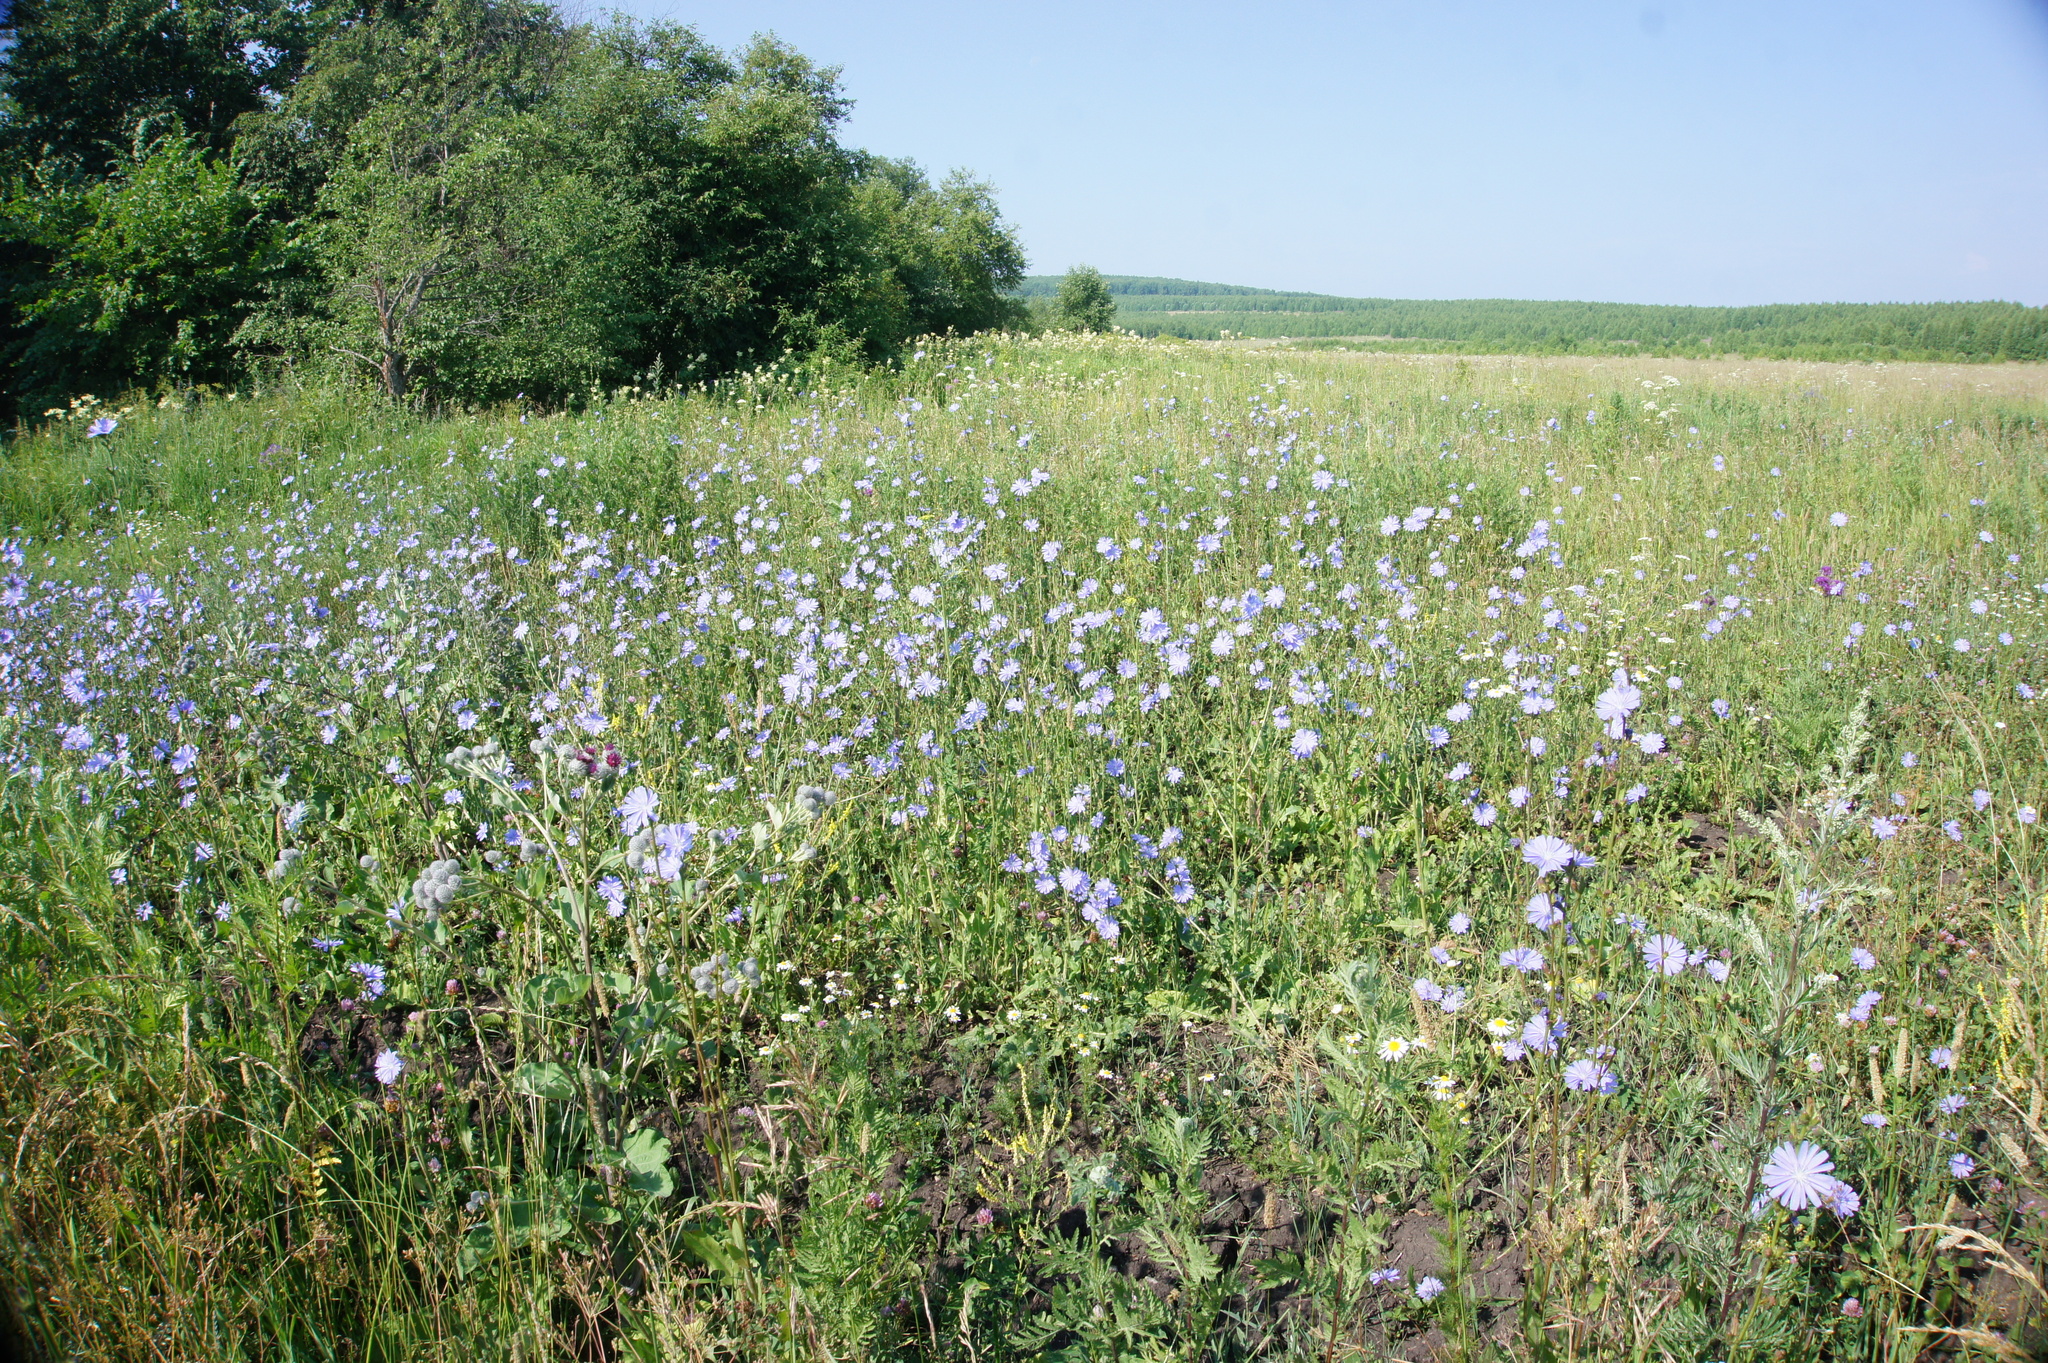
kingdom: Plantae
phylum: Tracheophyta
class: Magnoliopsida
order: Asterales
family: Asteraceae
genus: Cichorium
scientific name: Cichorium intybus
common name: Chicory
